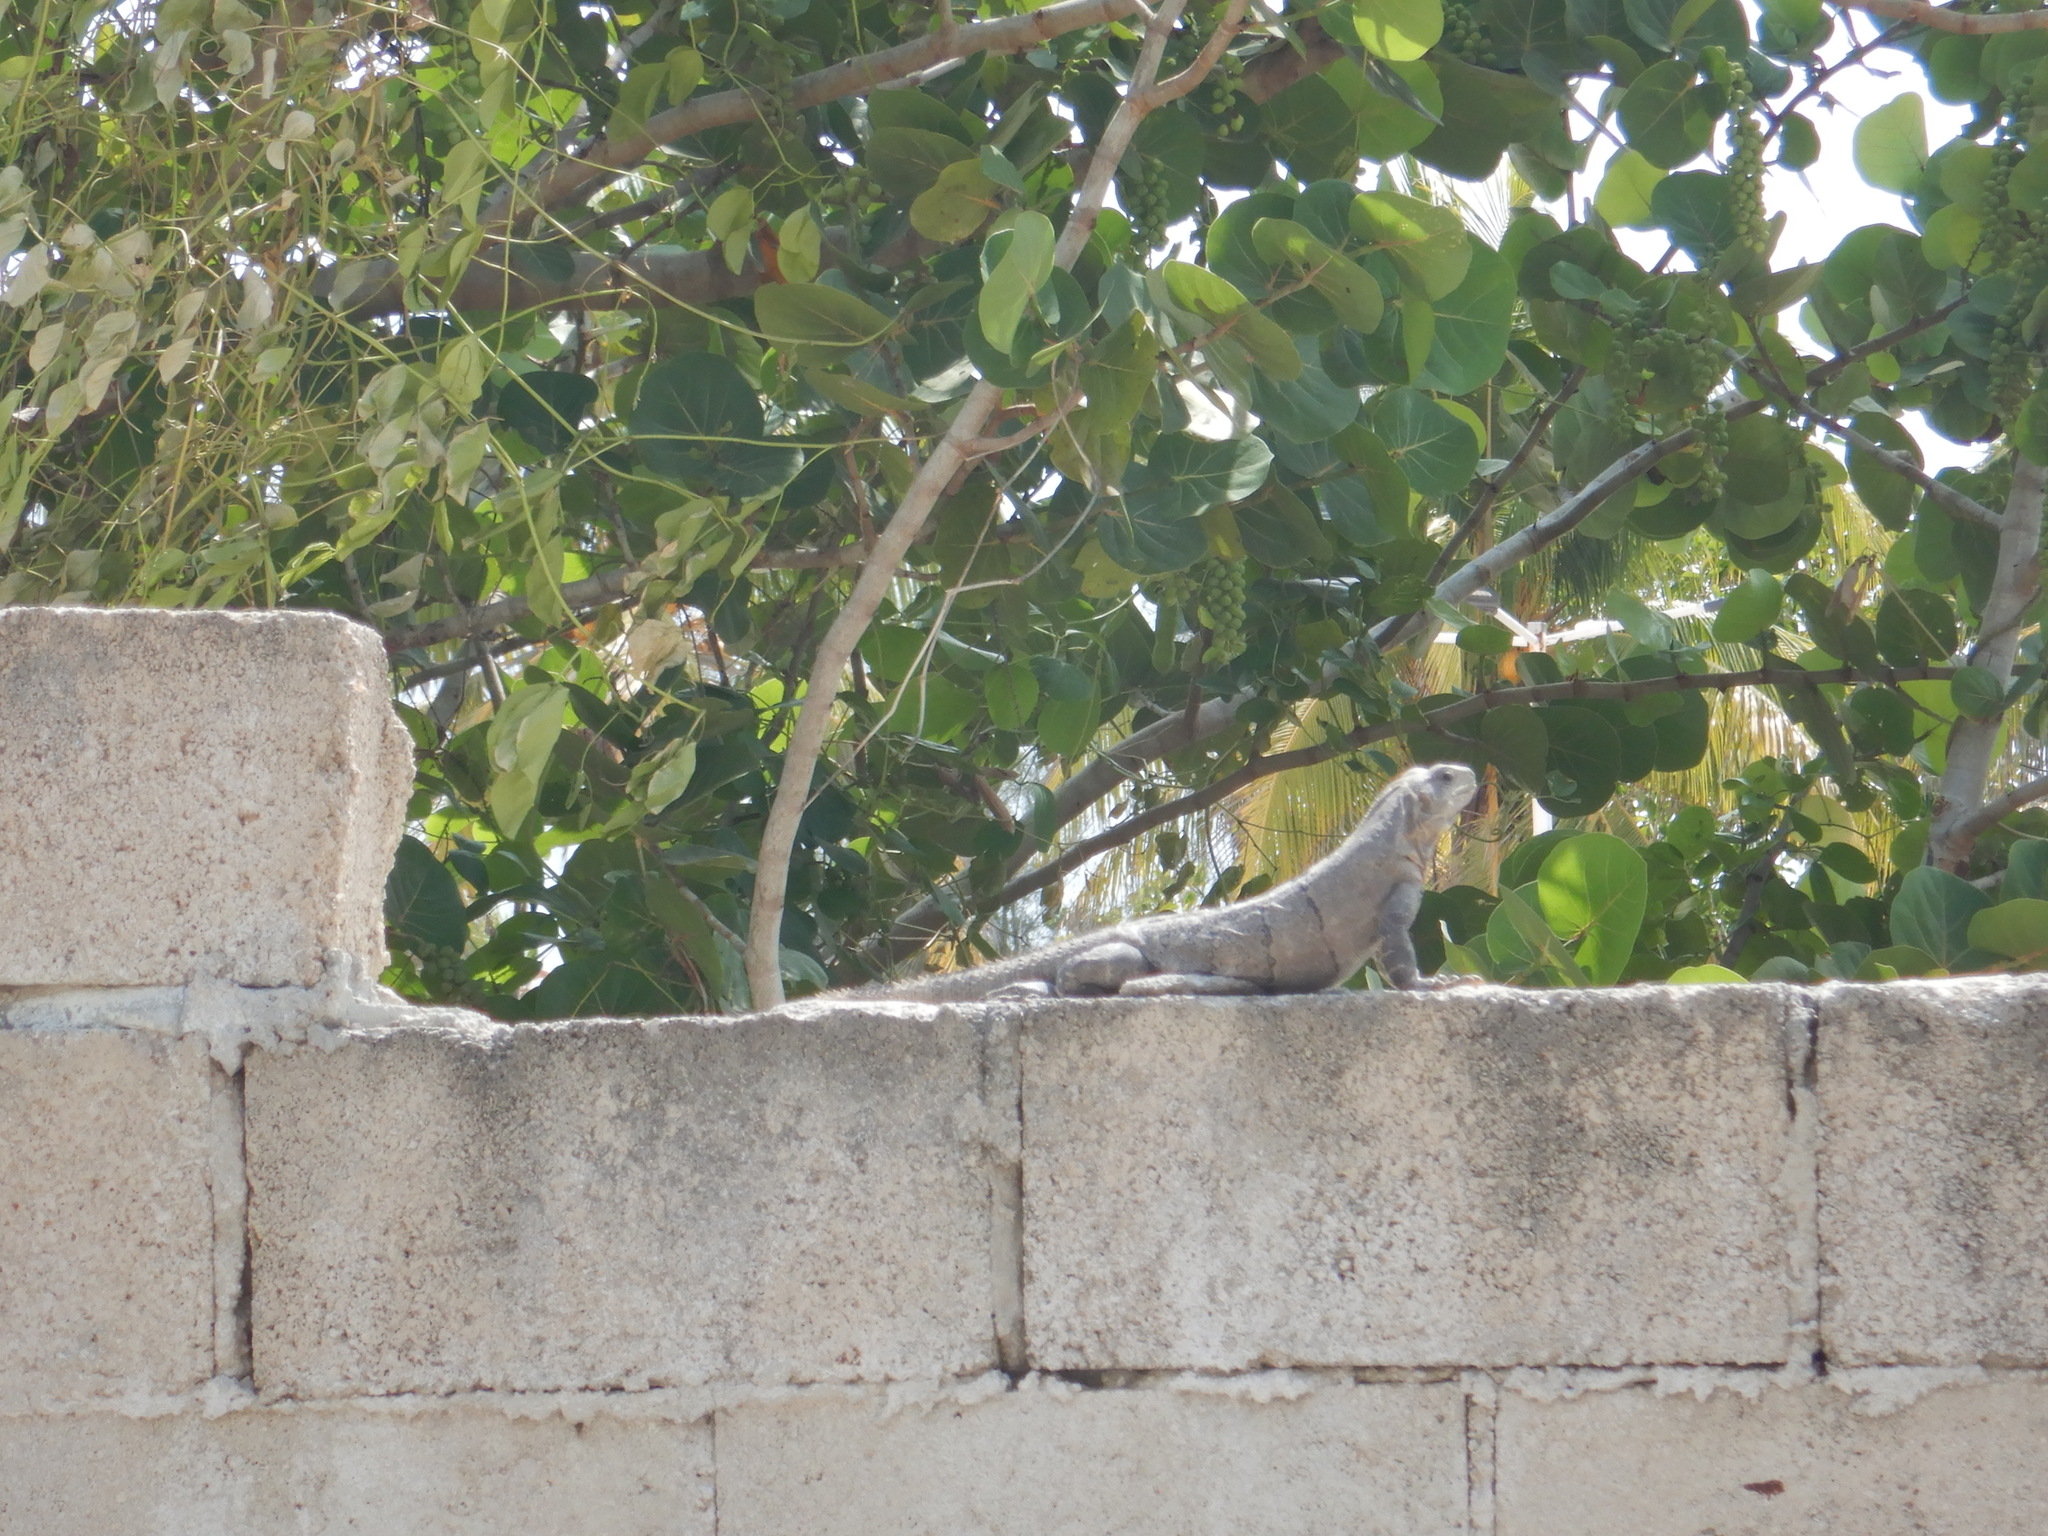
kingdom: Animalia
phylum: Chordata
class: Squamata
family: Iguanidae
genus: Ctenosaura
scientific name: Ctenosaura similis
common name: Black spiny-tailed iguana
